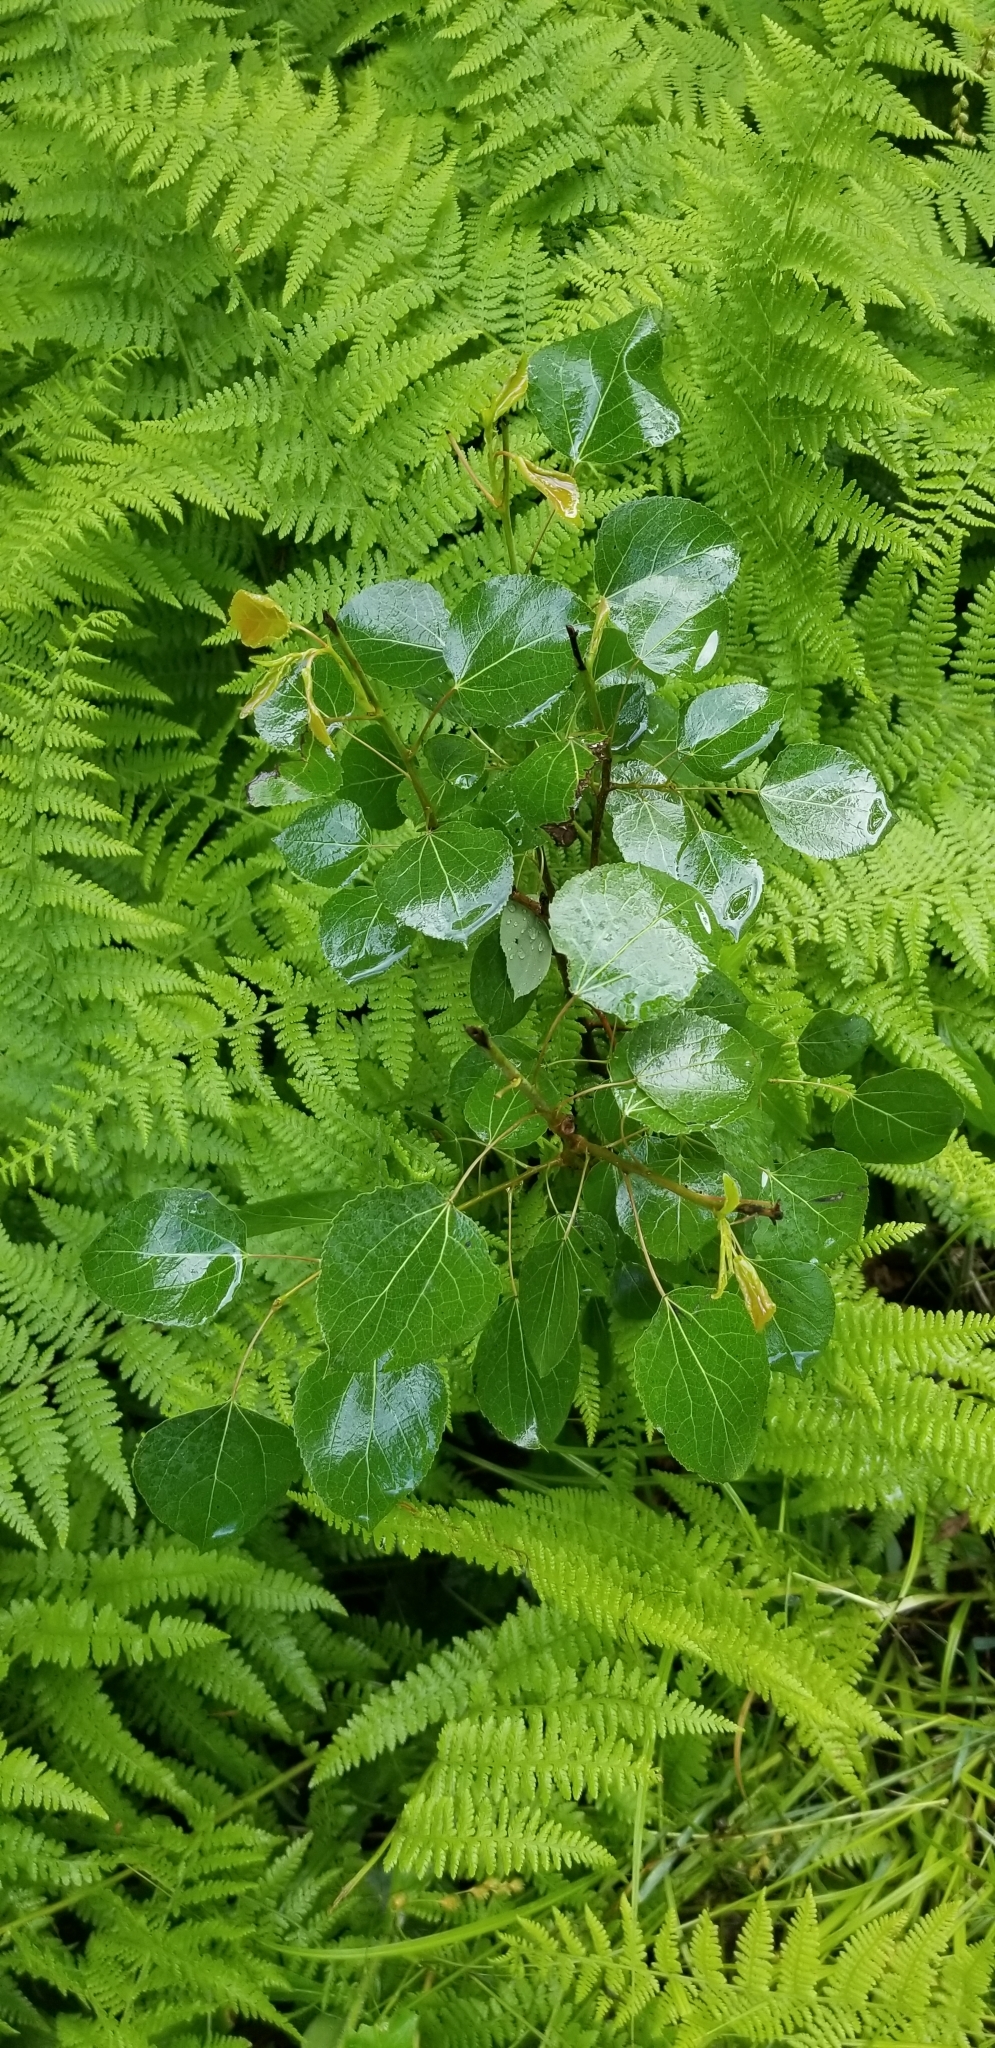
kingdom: Plantae
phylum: Tracheophyta
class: Magnoliopsida
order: Malpighiales
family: Salicaceae
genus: Populus
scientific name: Populus tremuloides
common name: Quaking aspen
